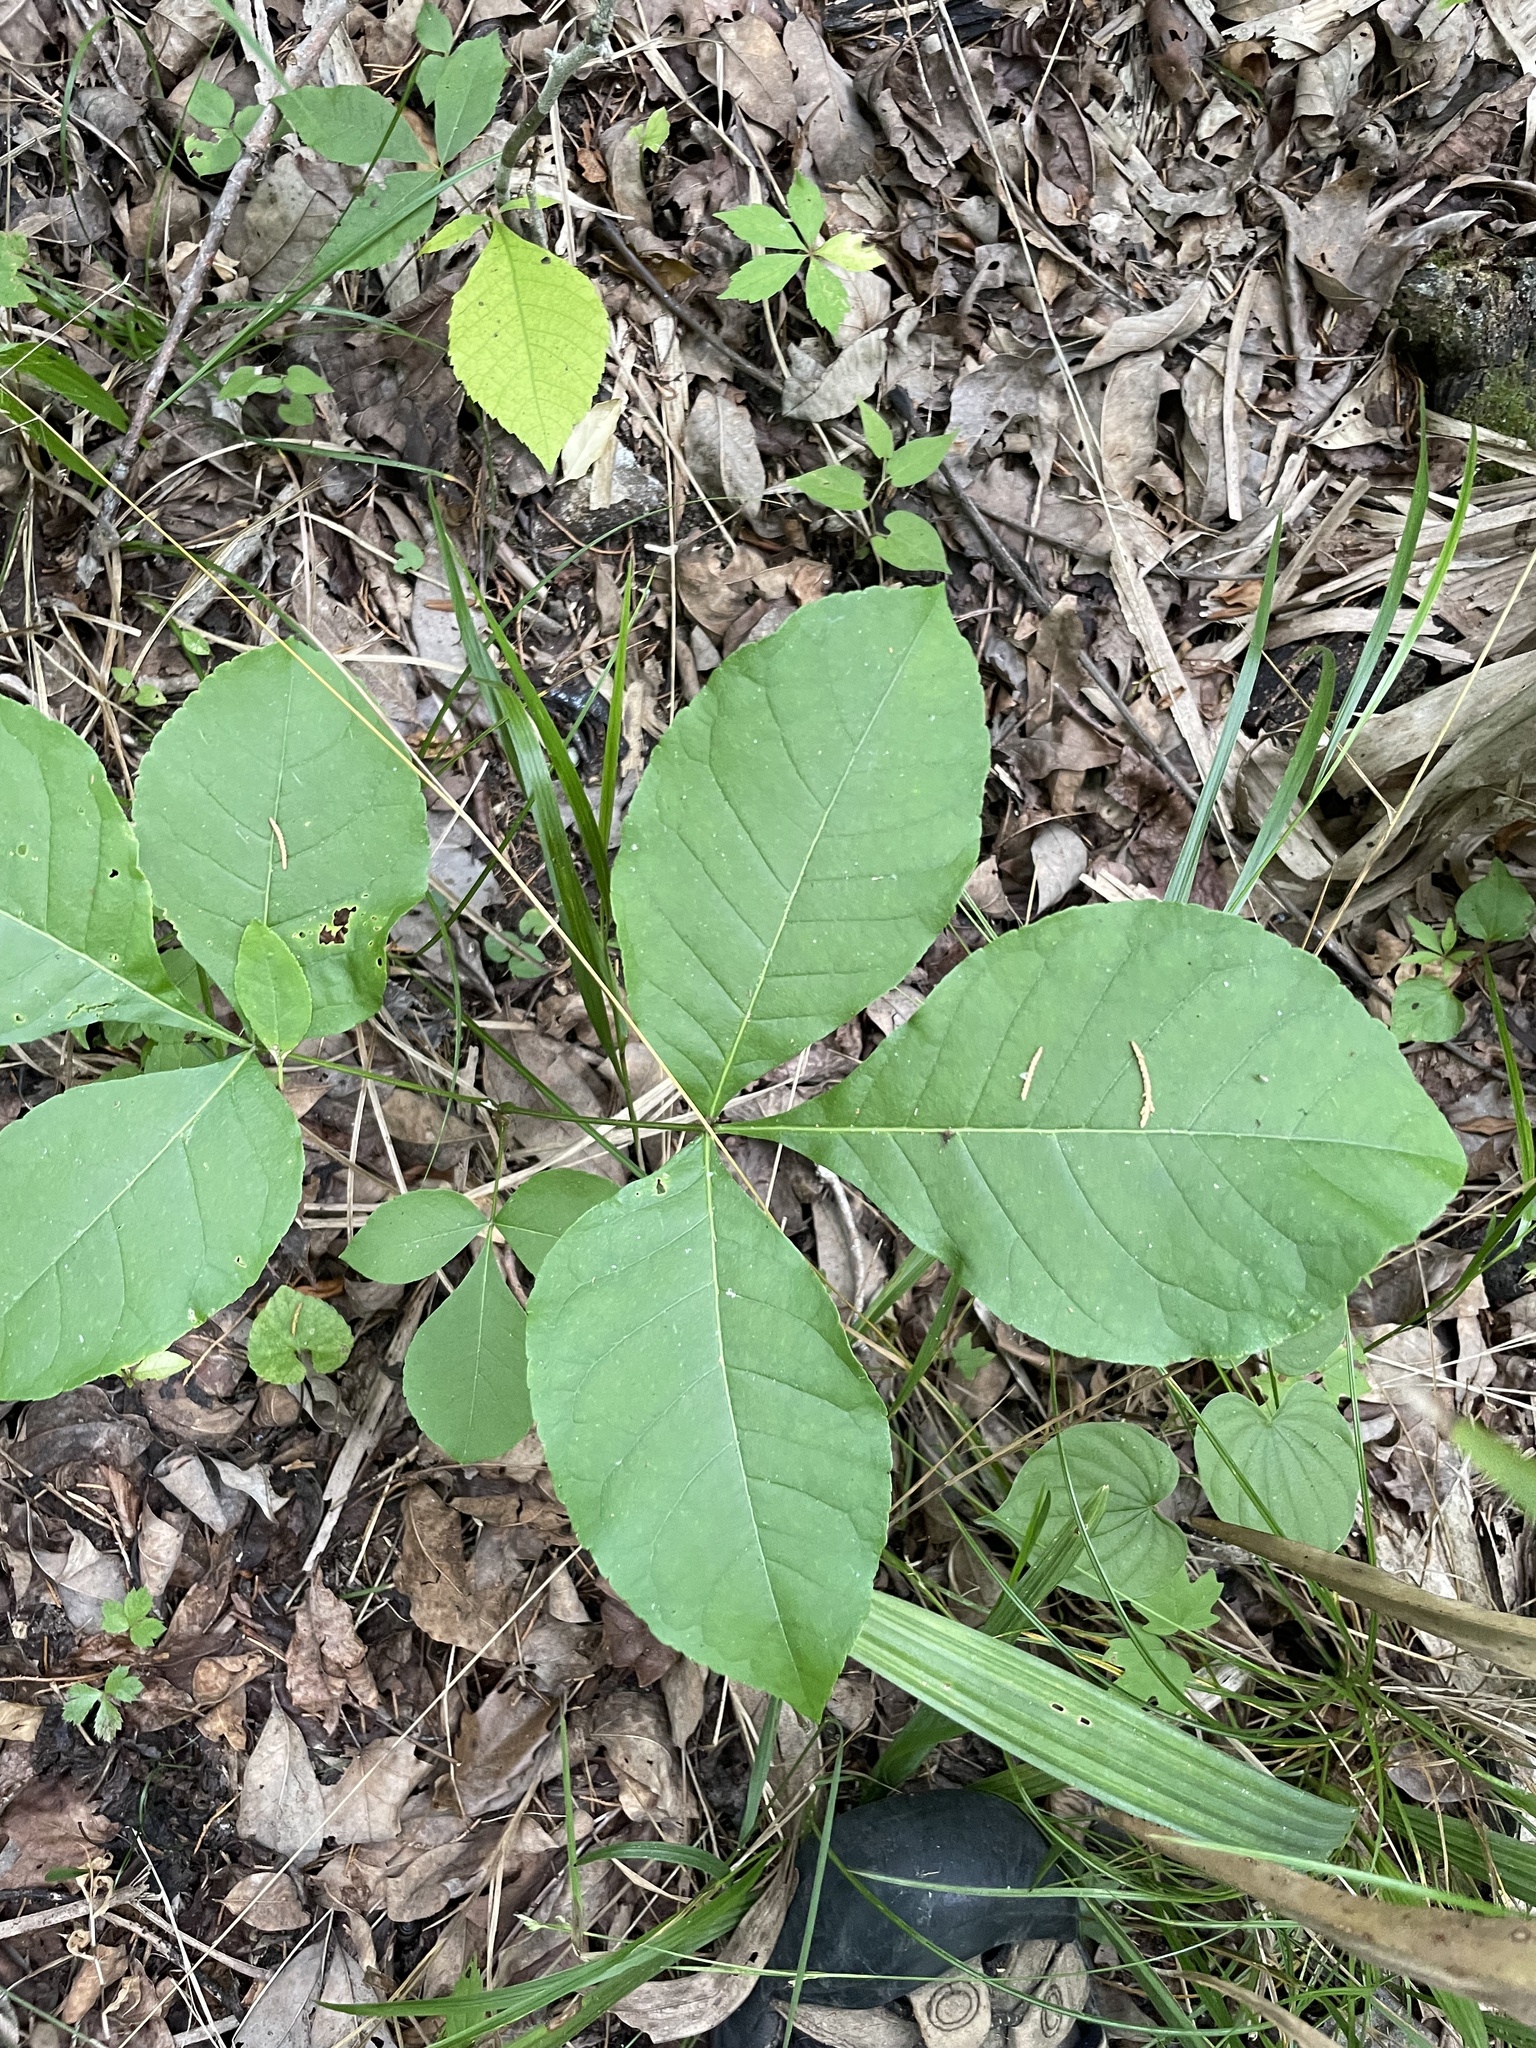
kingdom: Plantae
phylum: Tracheophyta
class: Magnoliopsida
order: Sapindales
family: Rutaceae
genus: Ptelea
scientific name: Ptelea trifoliata
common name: Common hop-tree
